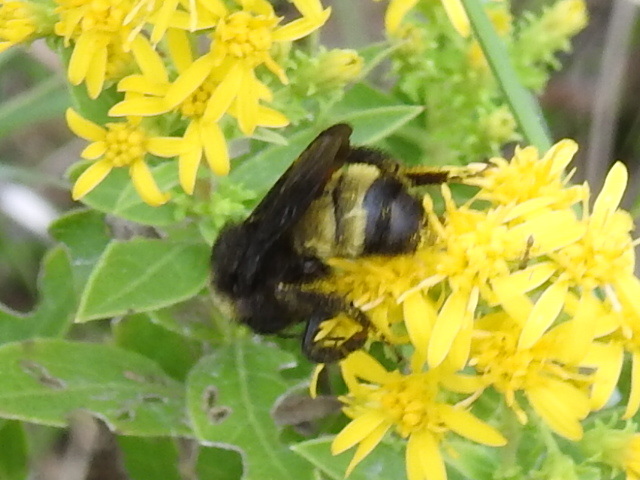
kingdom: Animalia
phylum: Arthropoda
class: Insecta
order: Hymenoptera
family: Apidae
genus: Bombus
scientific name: Bombus pensylvanicus
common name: Bumble bee
